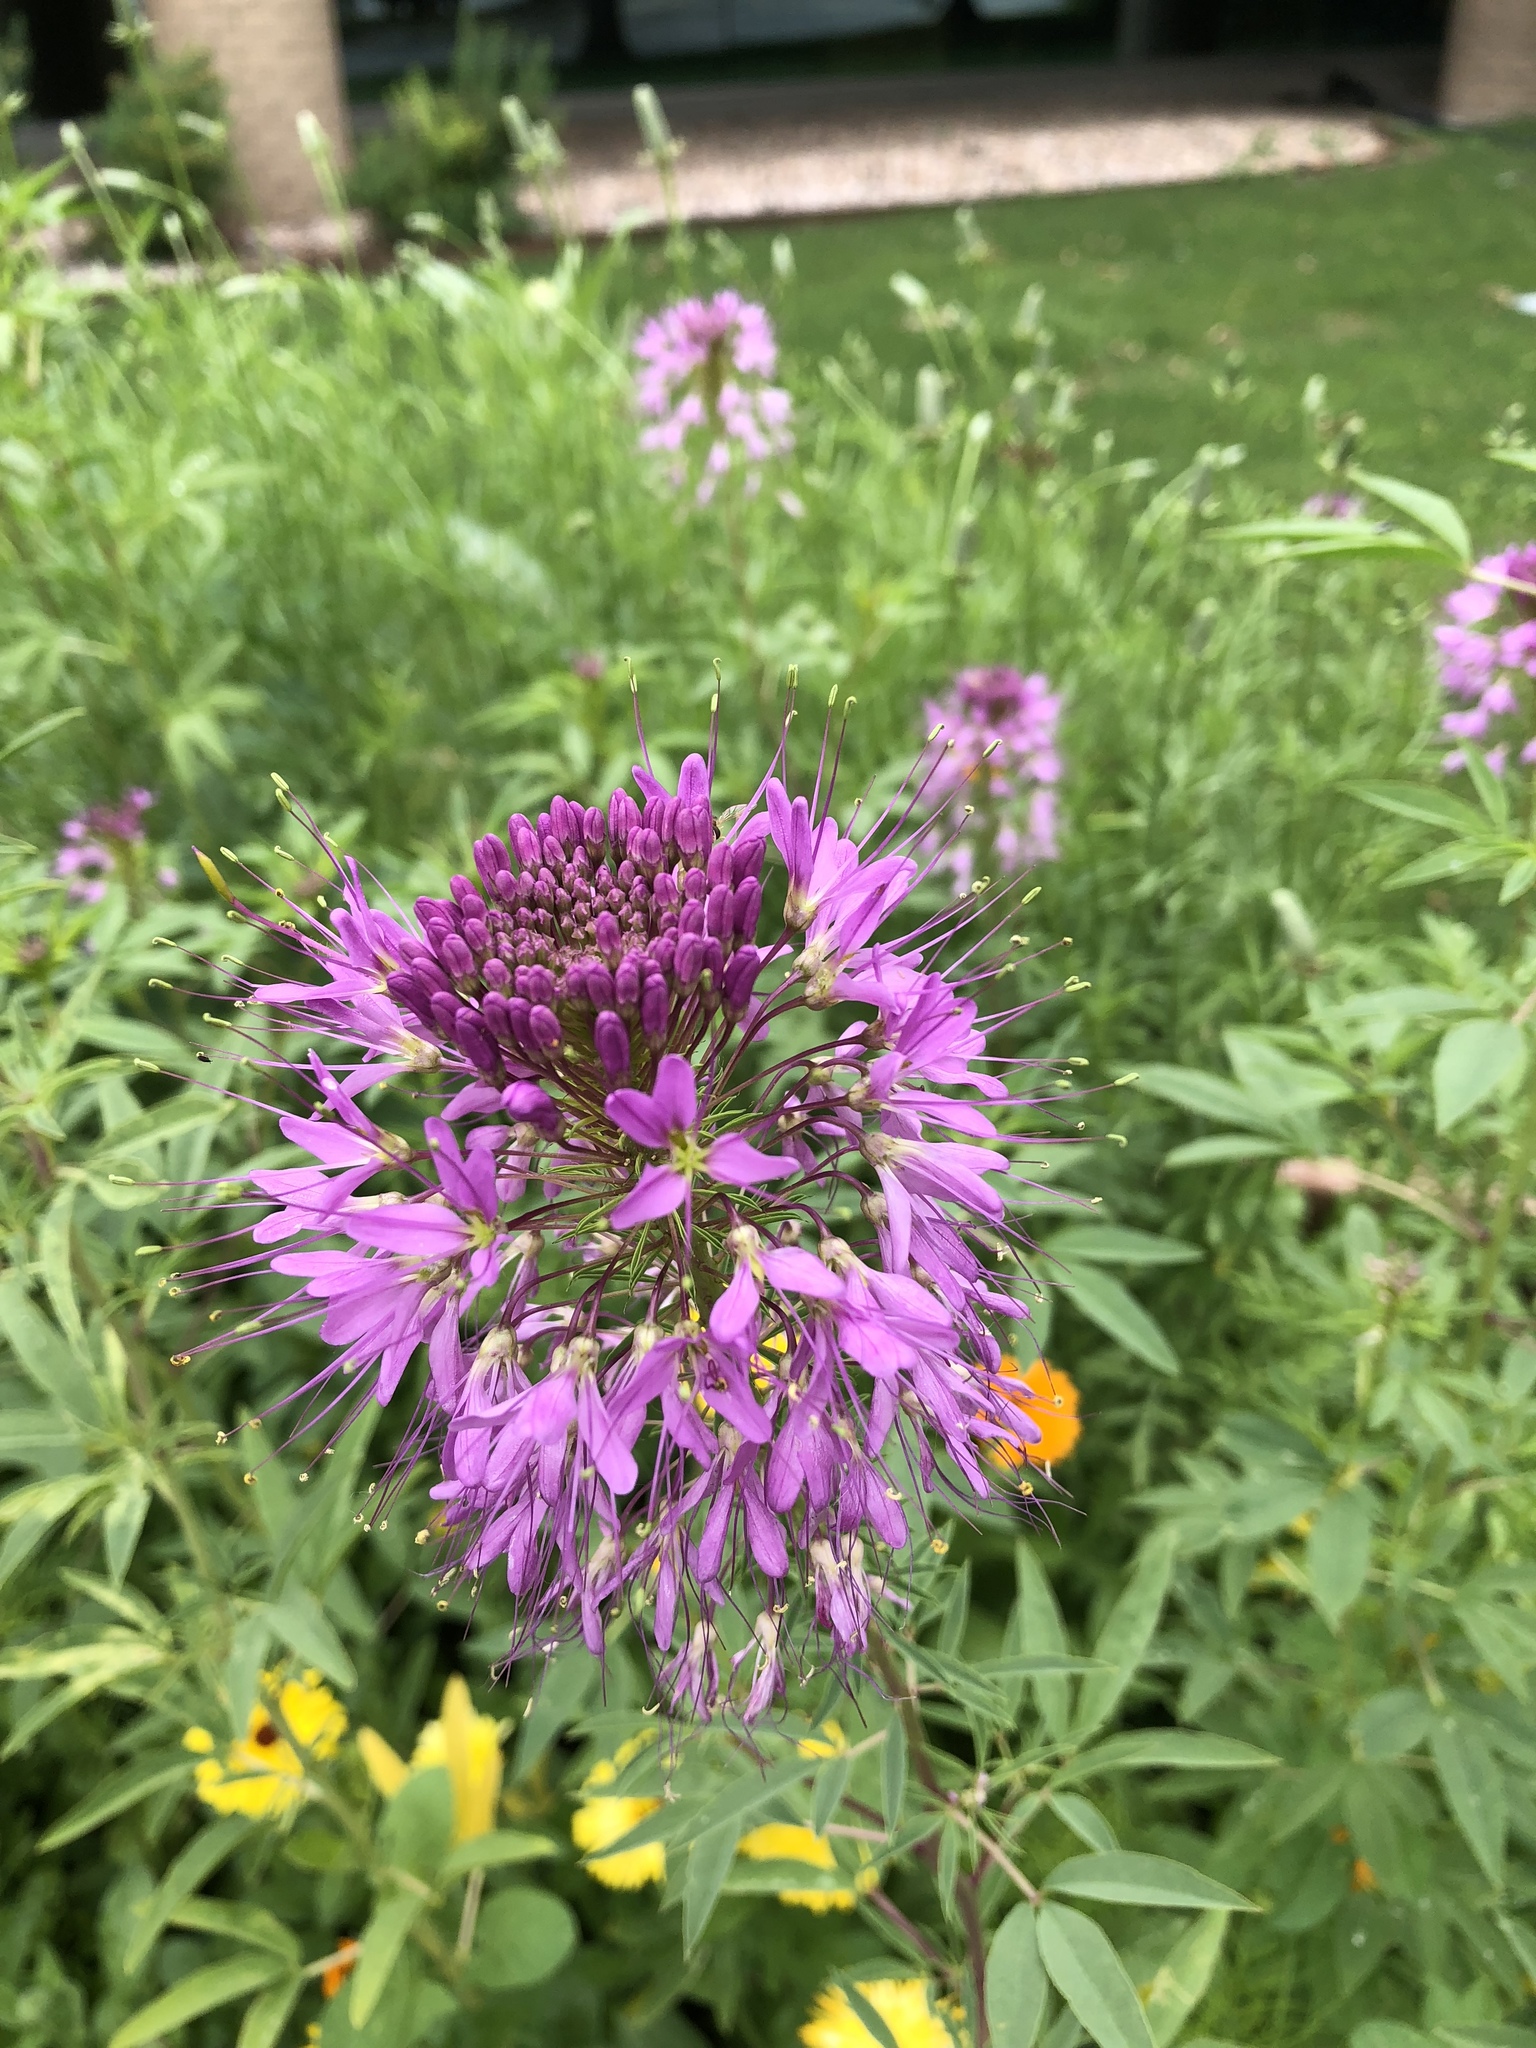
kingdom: Plantae
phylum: Tracheophyta
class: Magnoliopsida
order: Brassicales
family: Cleomaceae
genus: Cleomella
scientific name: Cleomella serrulata
